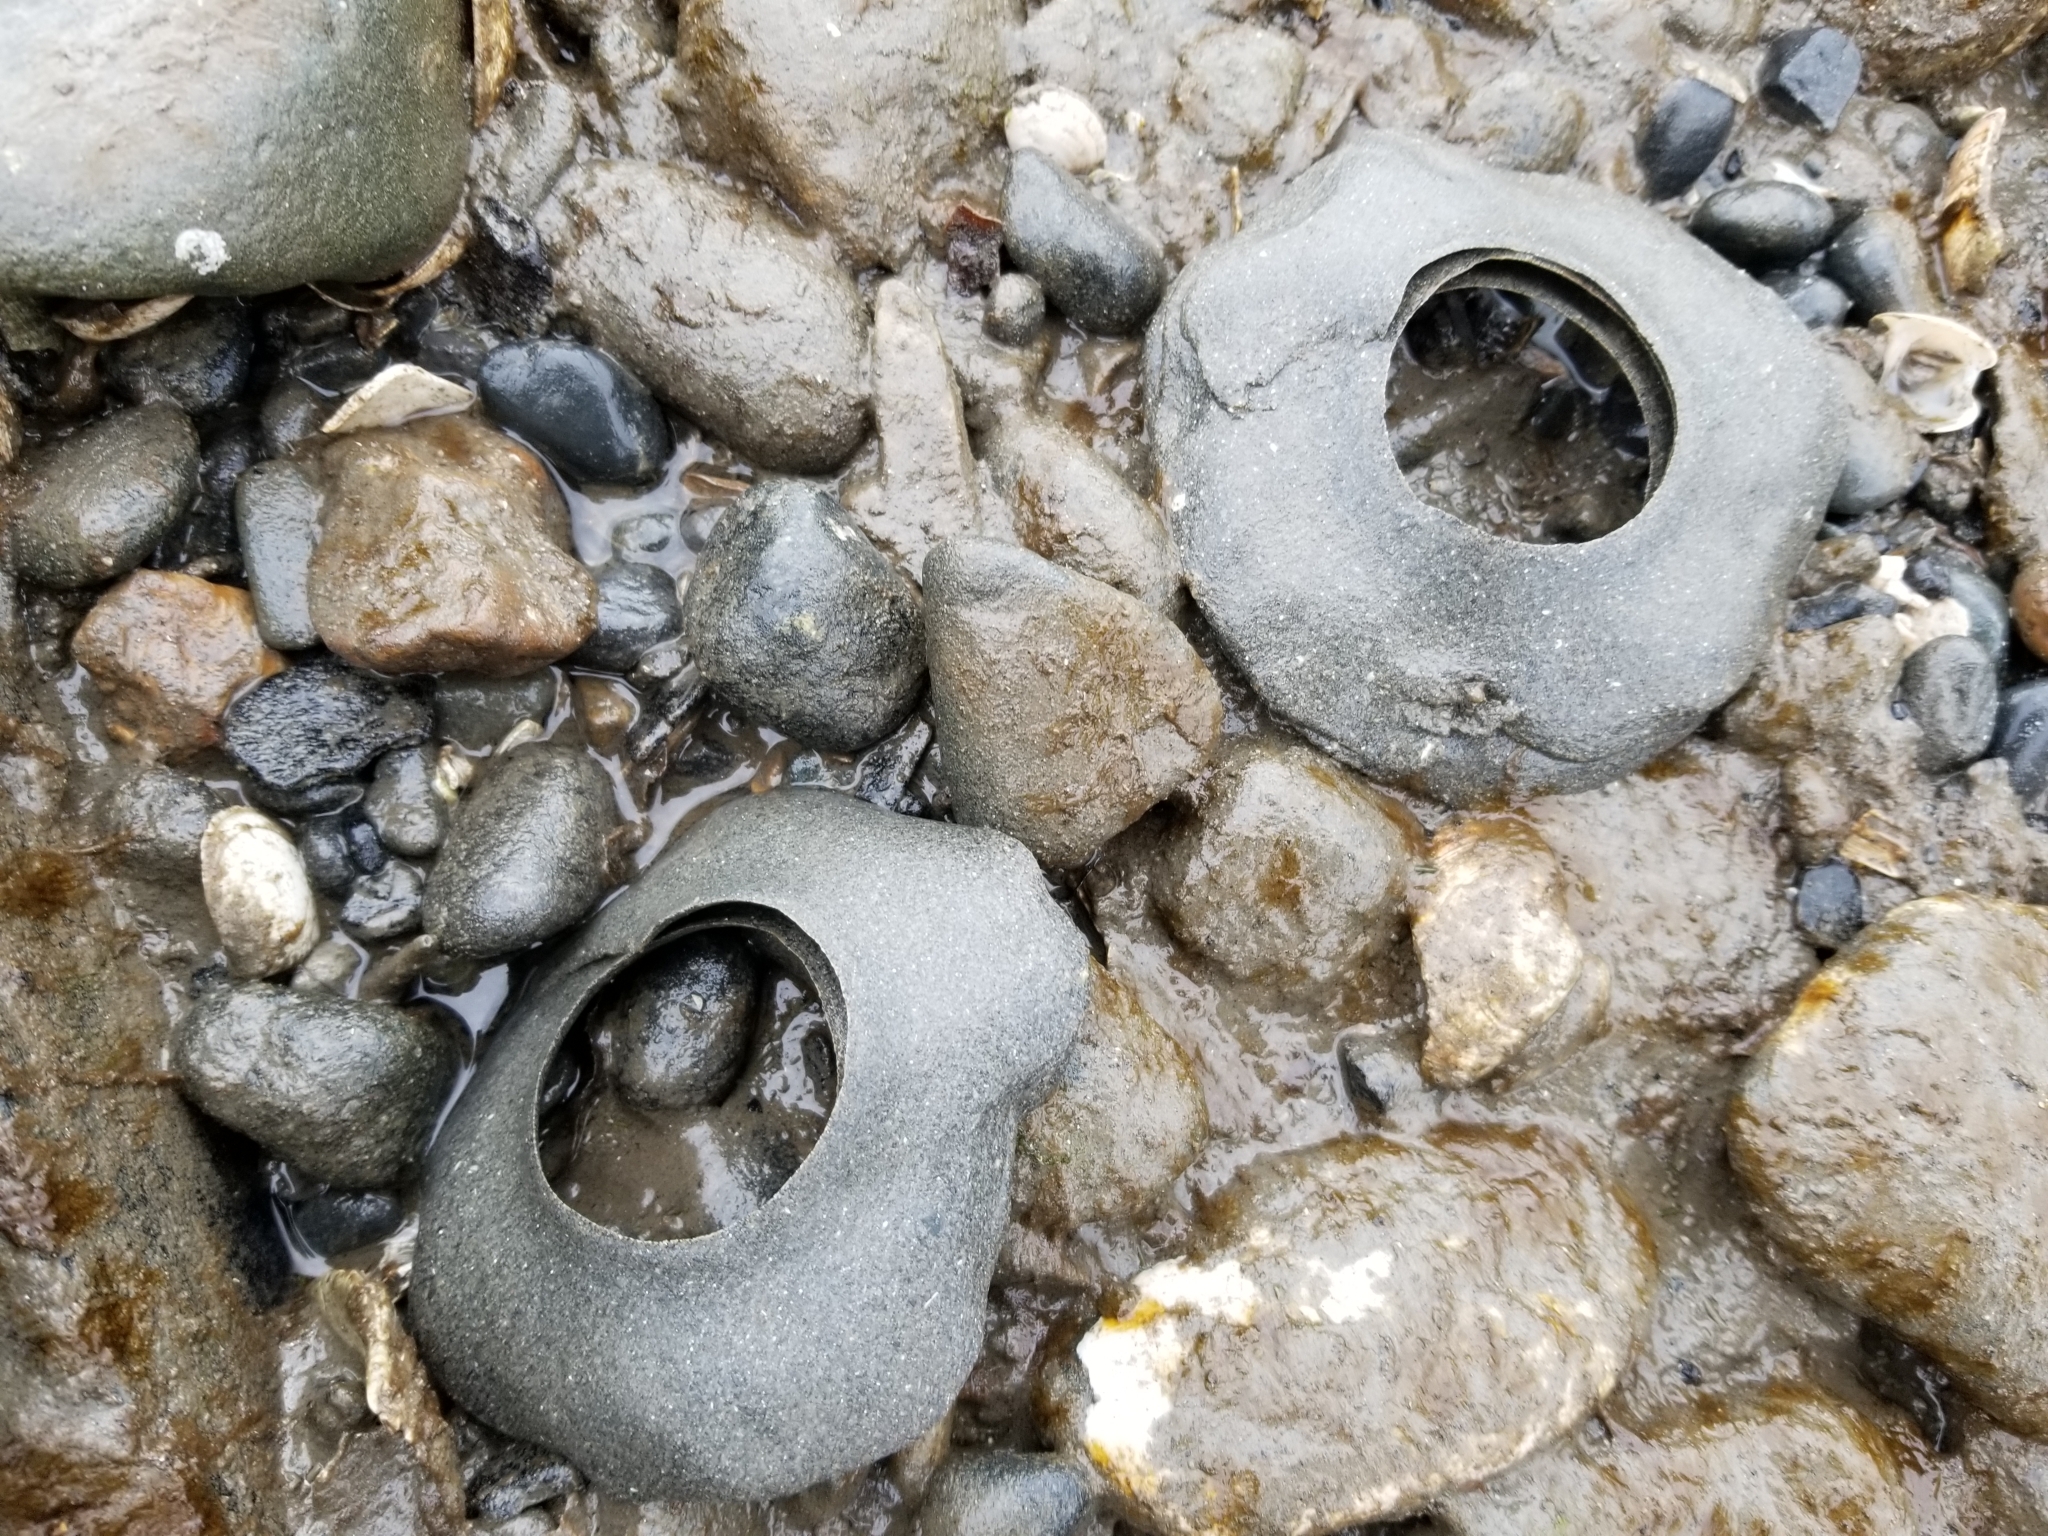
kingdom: Animalia
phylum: Mollusca
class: Gastropoda
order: Littorinimorpha
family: Naticidae
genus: Neverita
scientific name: Neverita lewisii
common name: Lewis' moonsnail
